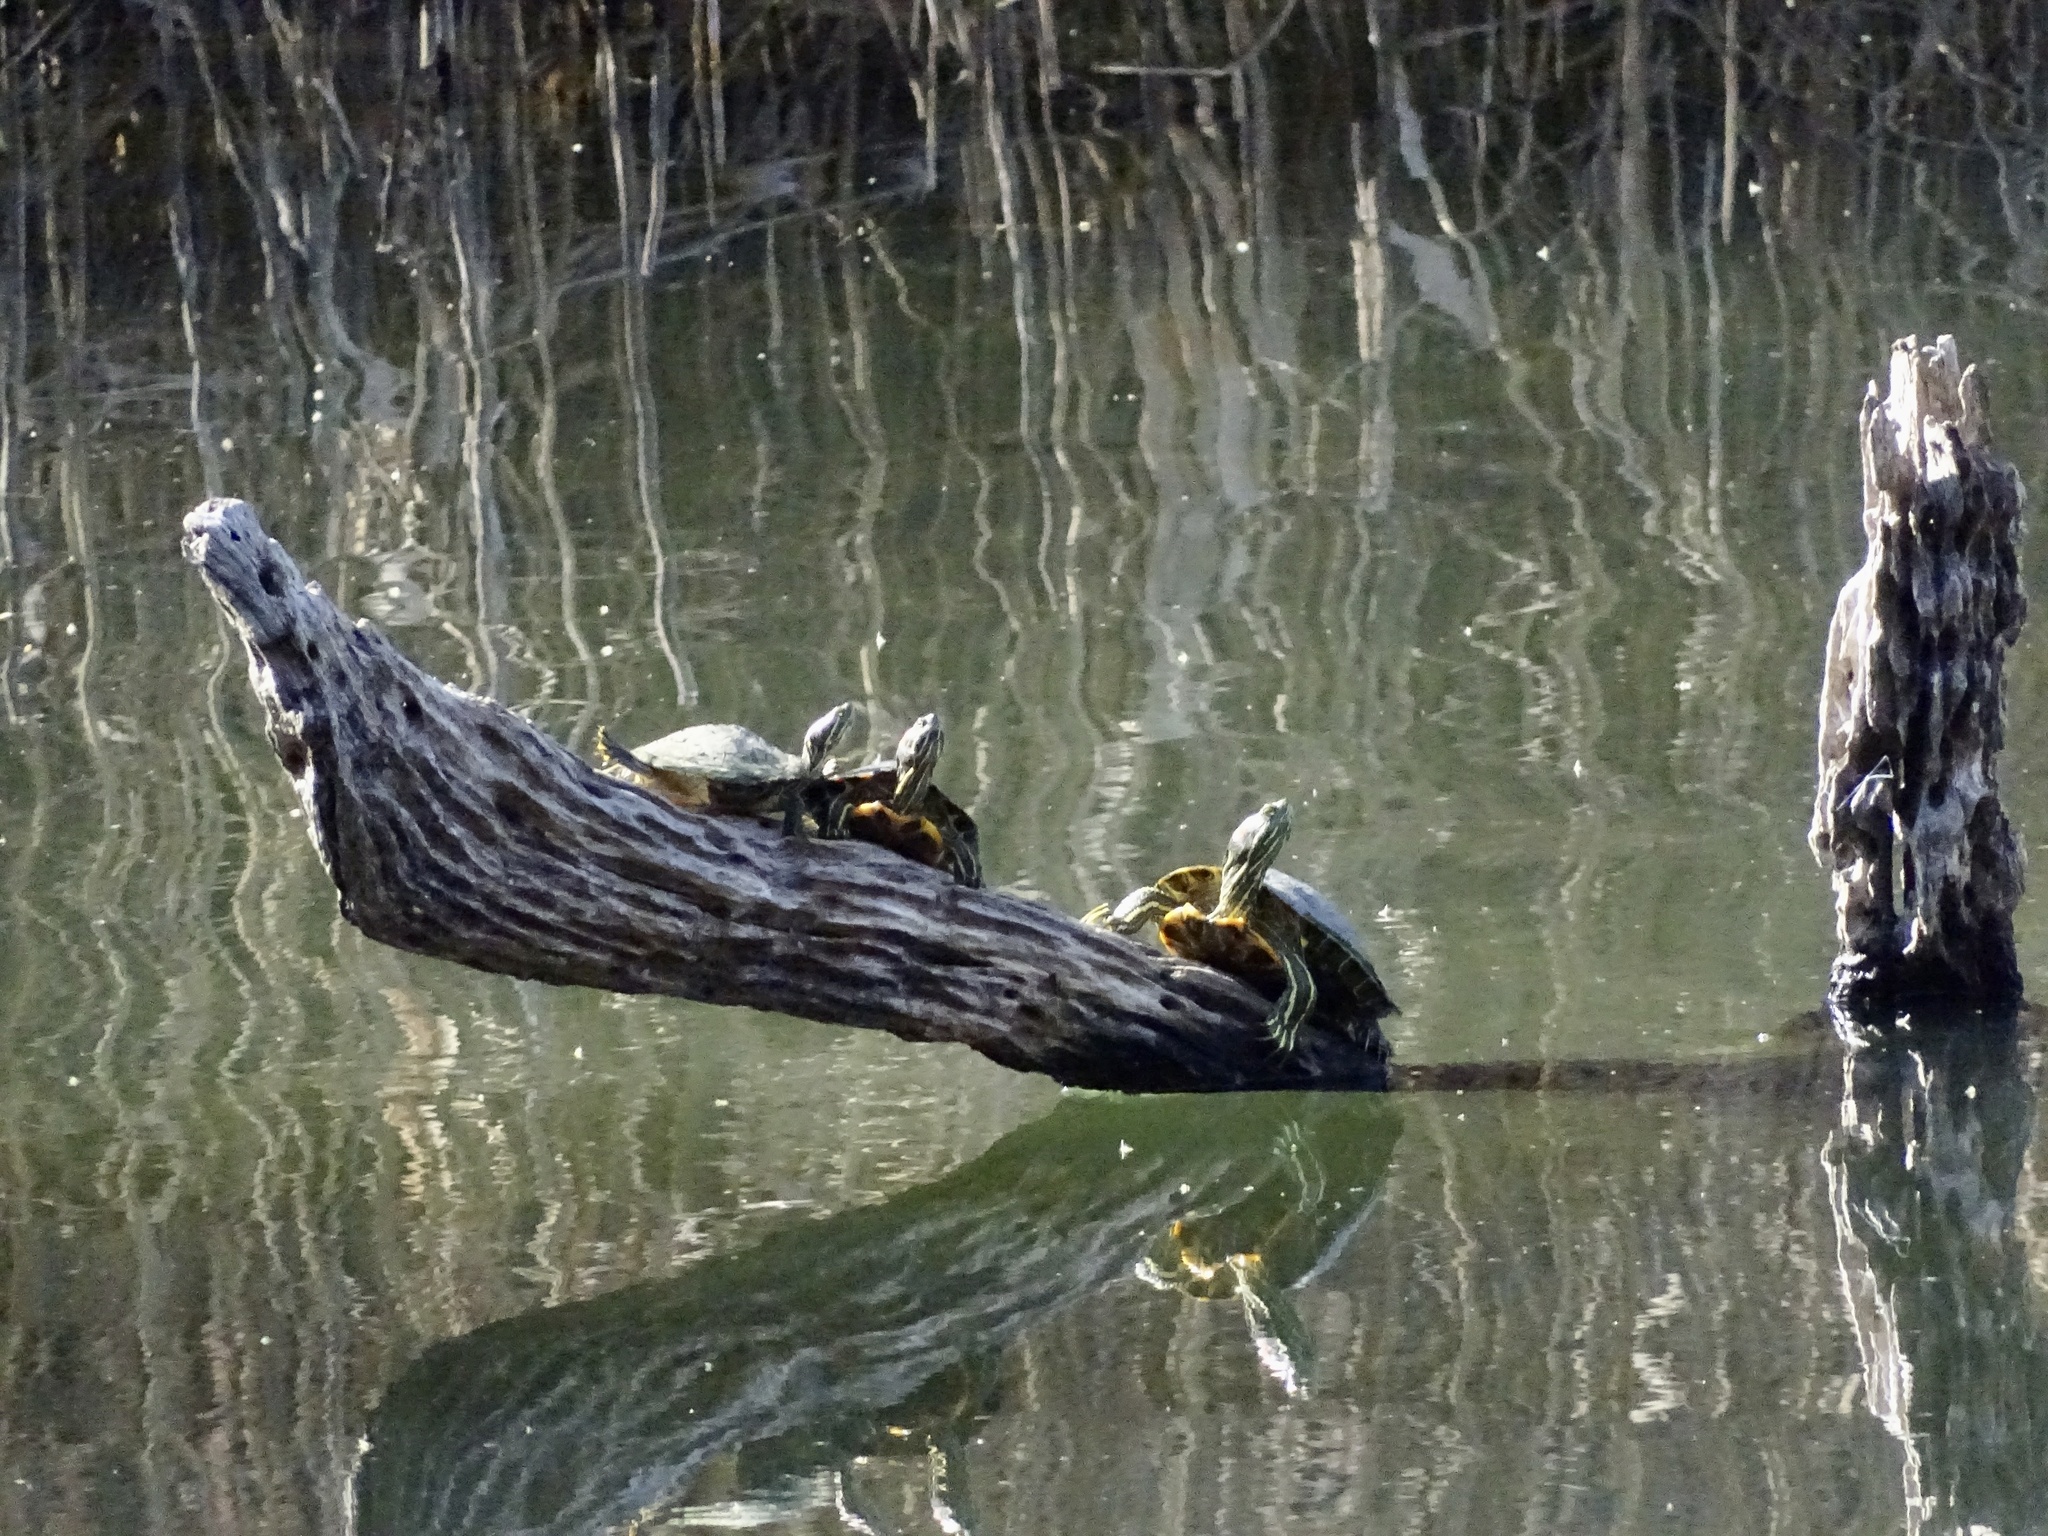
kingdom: Animalia
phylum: Chordata
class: Testudines
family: Emydidae
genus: Trachemys
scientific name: Trachemys scripta
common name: Slider
